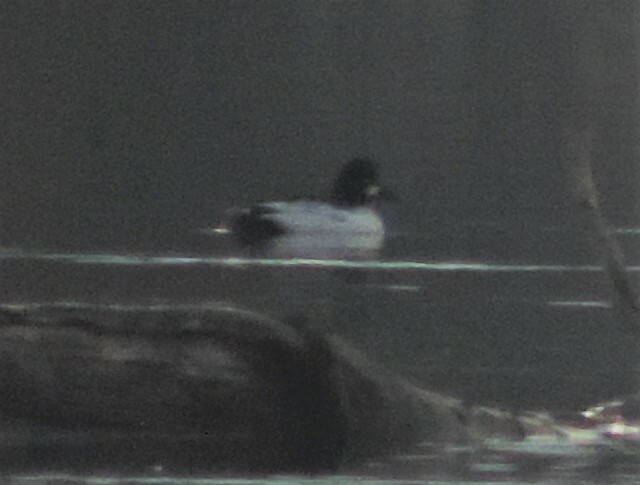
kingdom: Animalia
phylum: Chordata
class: Aves
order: Anseriformes
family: Anatidae
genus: Bucephala
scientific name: Bucephala clangula
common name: Common goldeneye
